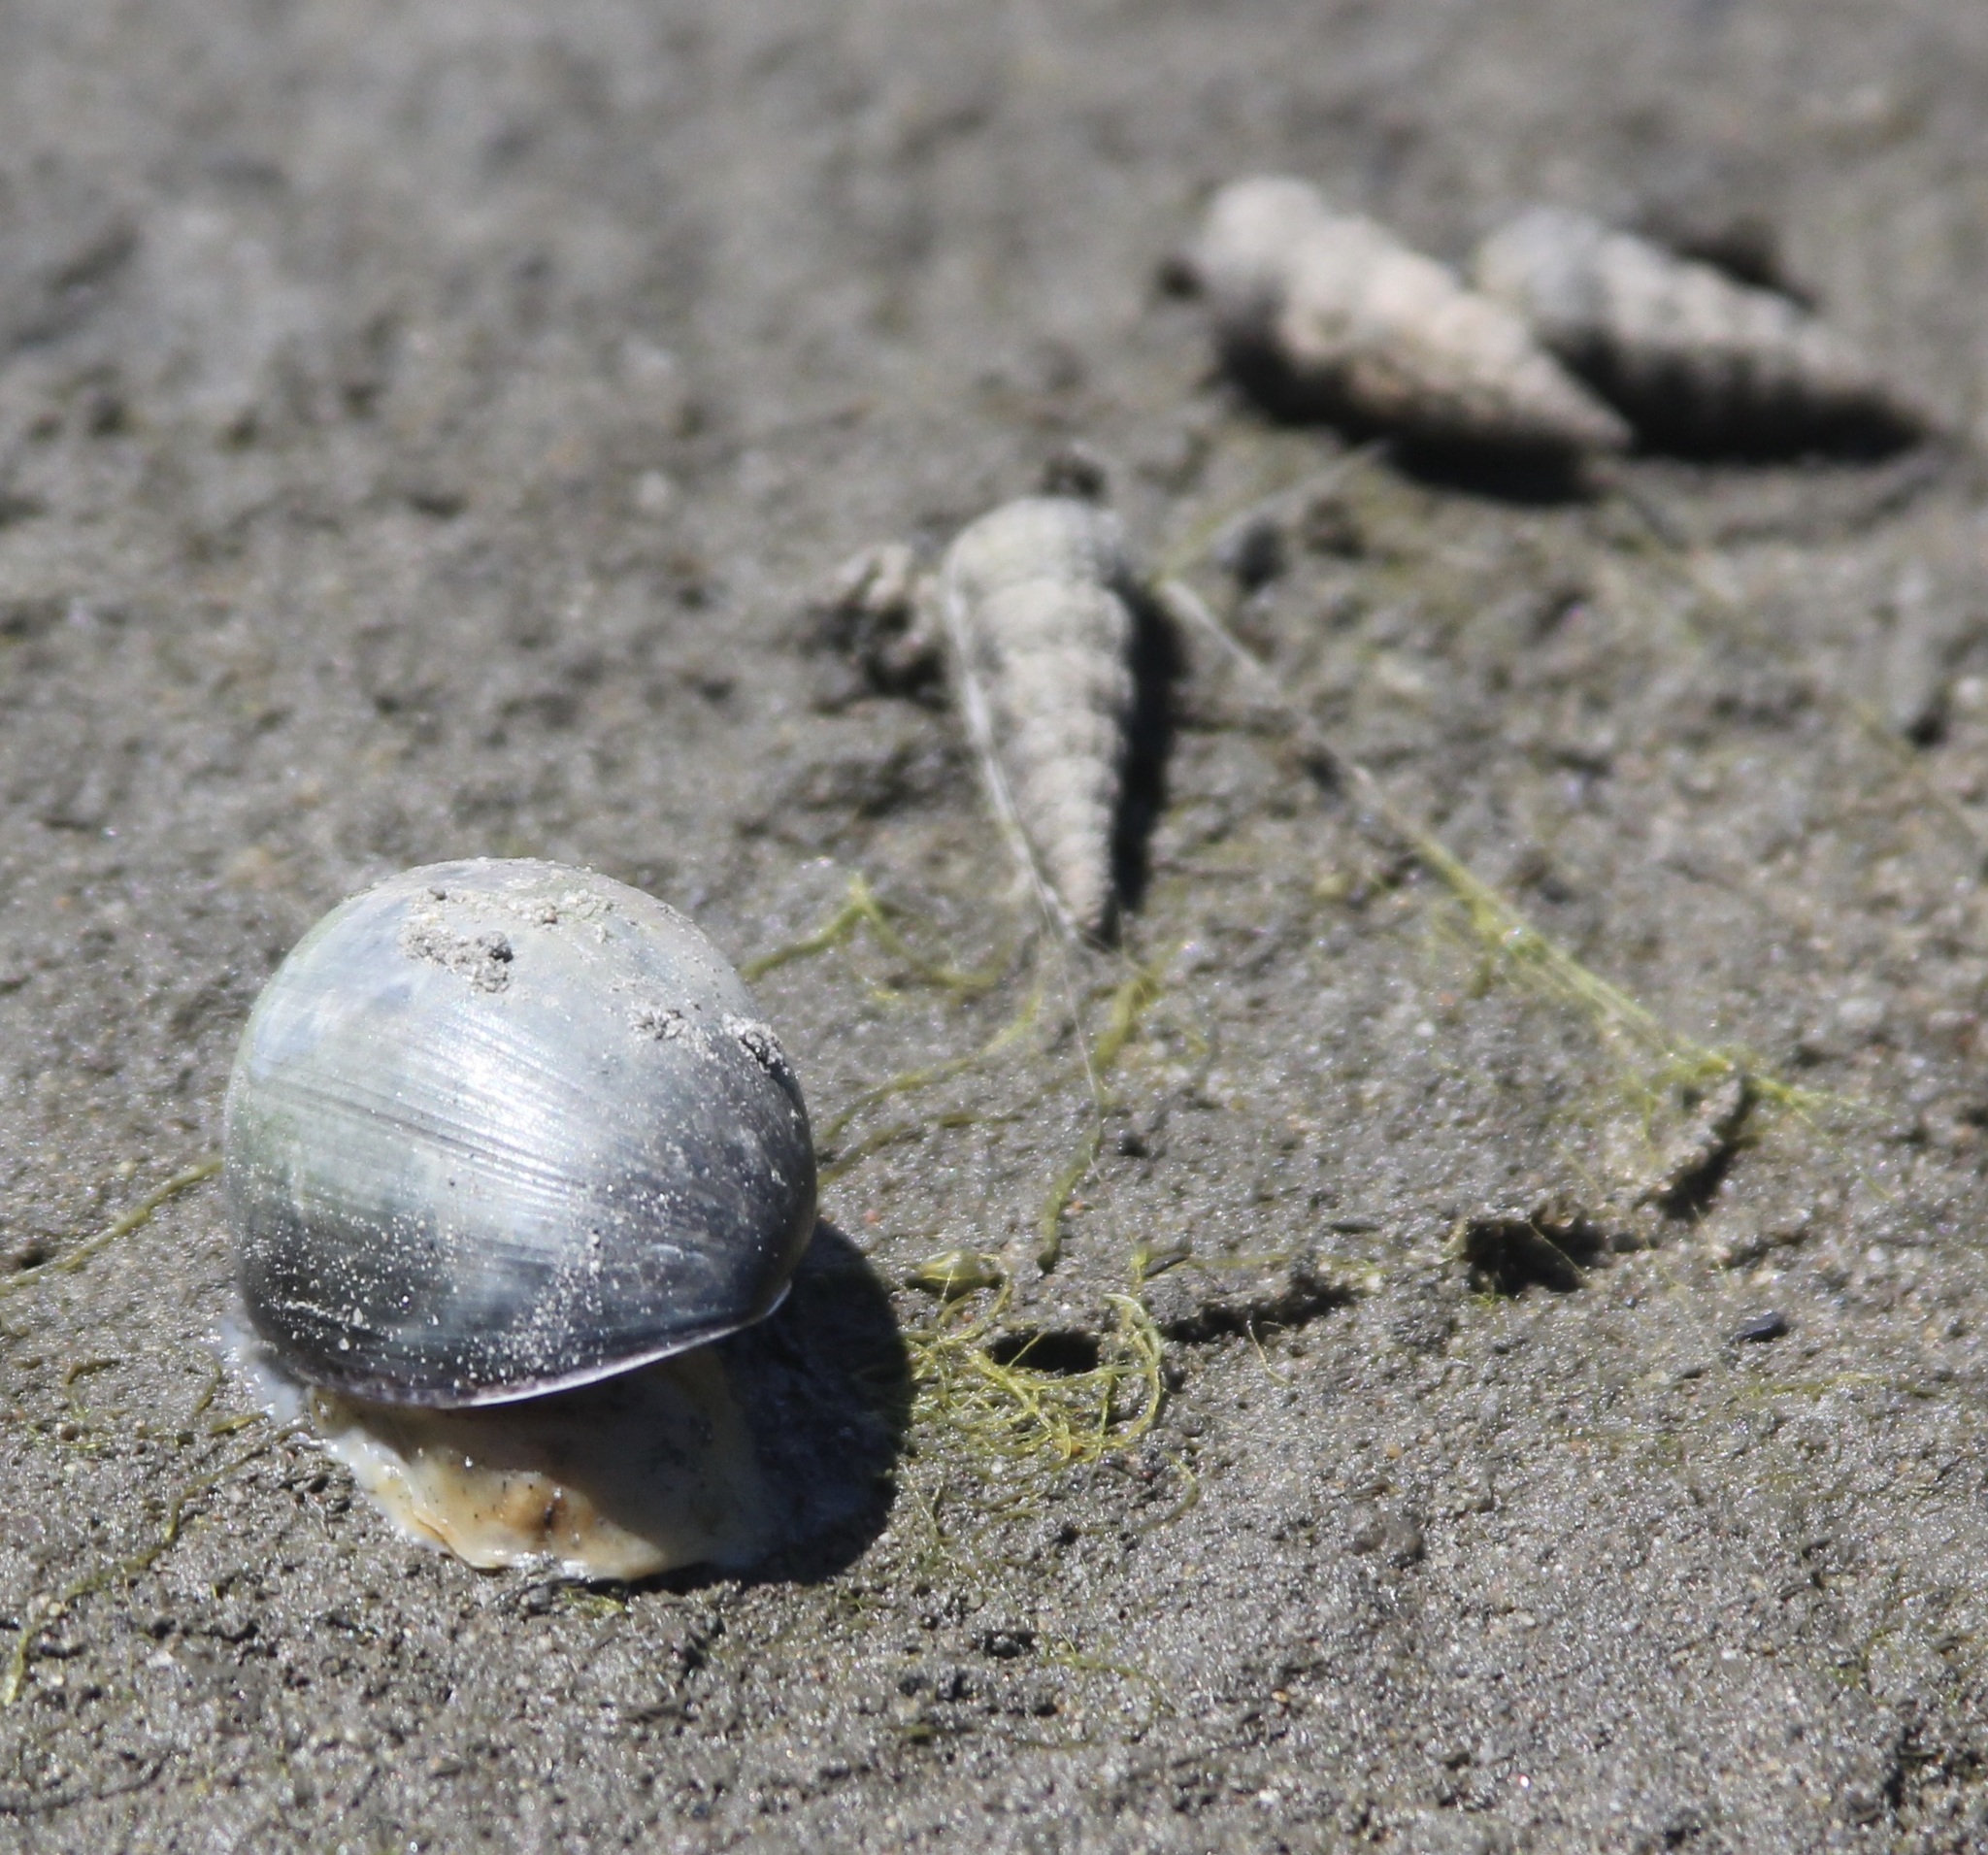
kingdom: Animalia
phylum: Mollusca
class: Gastropoda
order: Cephalaspidea
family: Bullidae
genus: Bulla
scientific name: Bulla gouldiana
